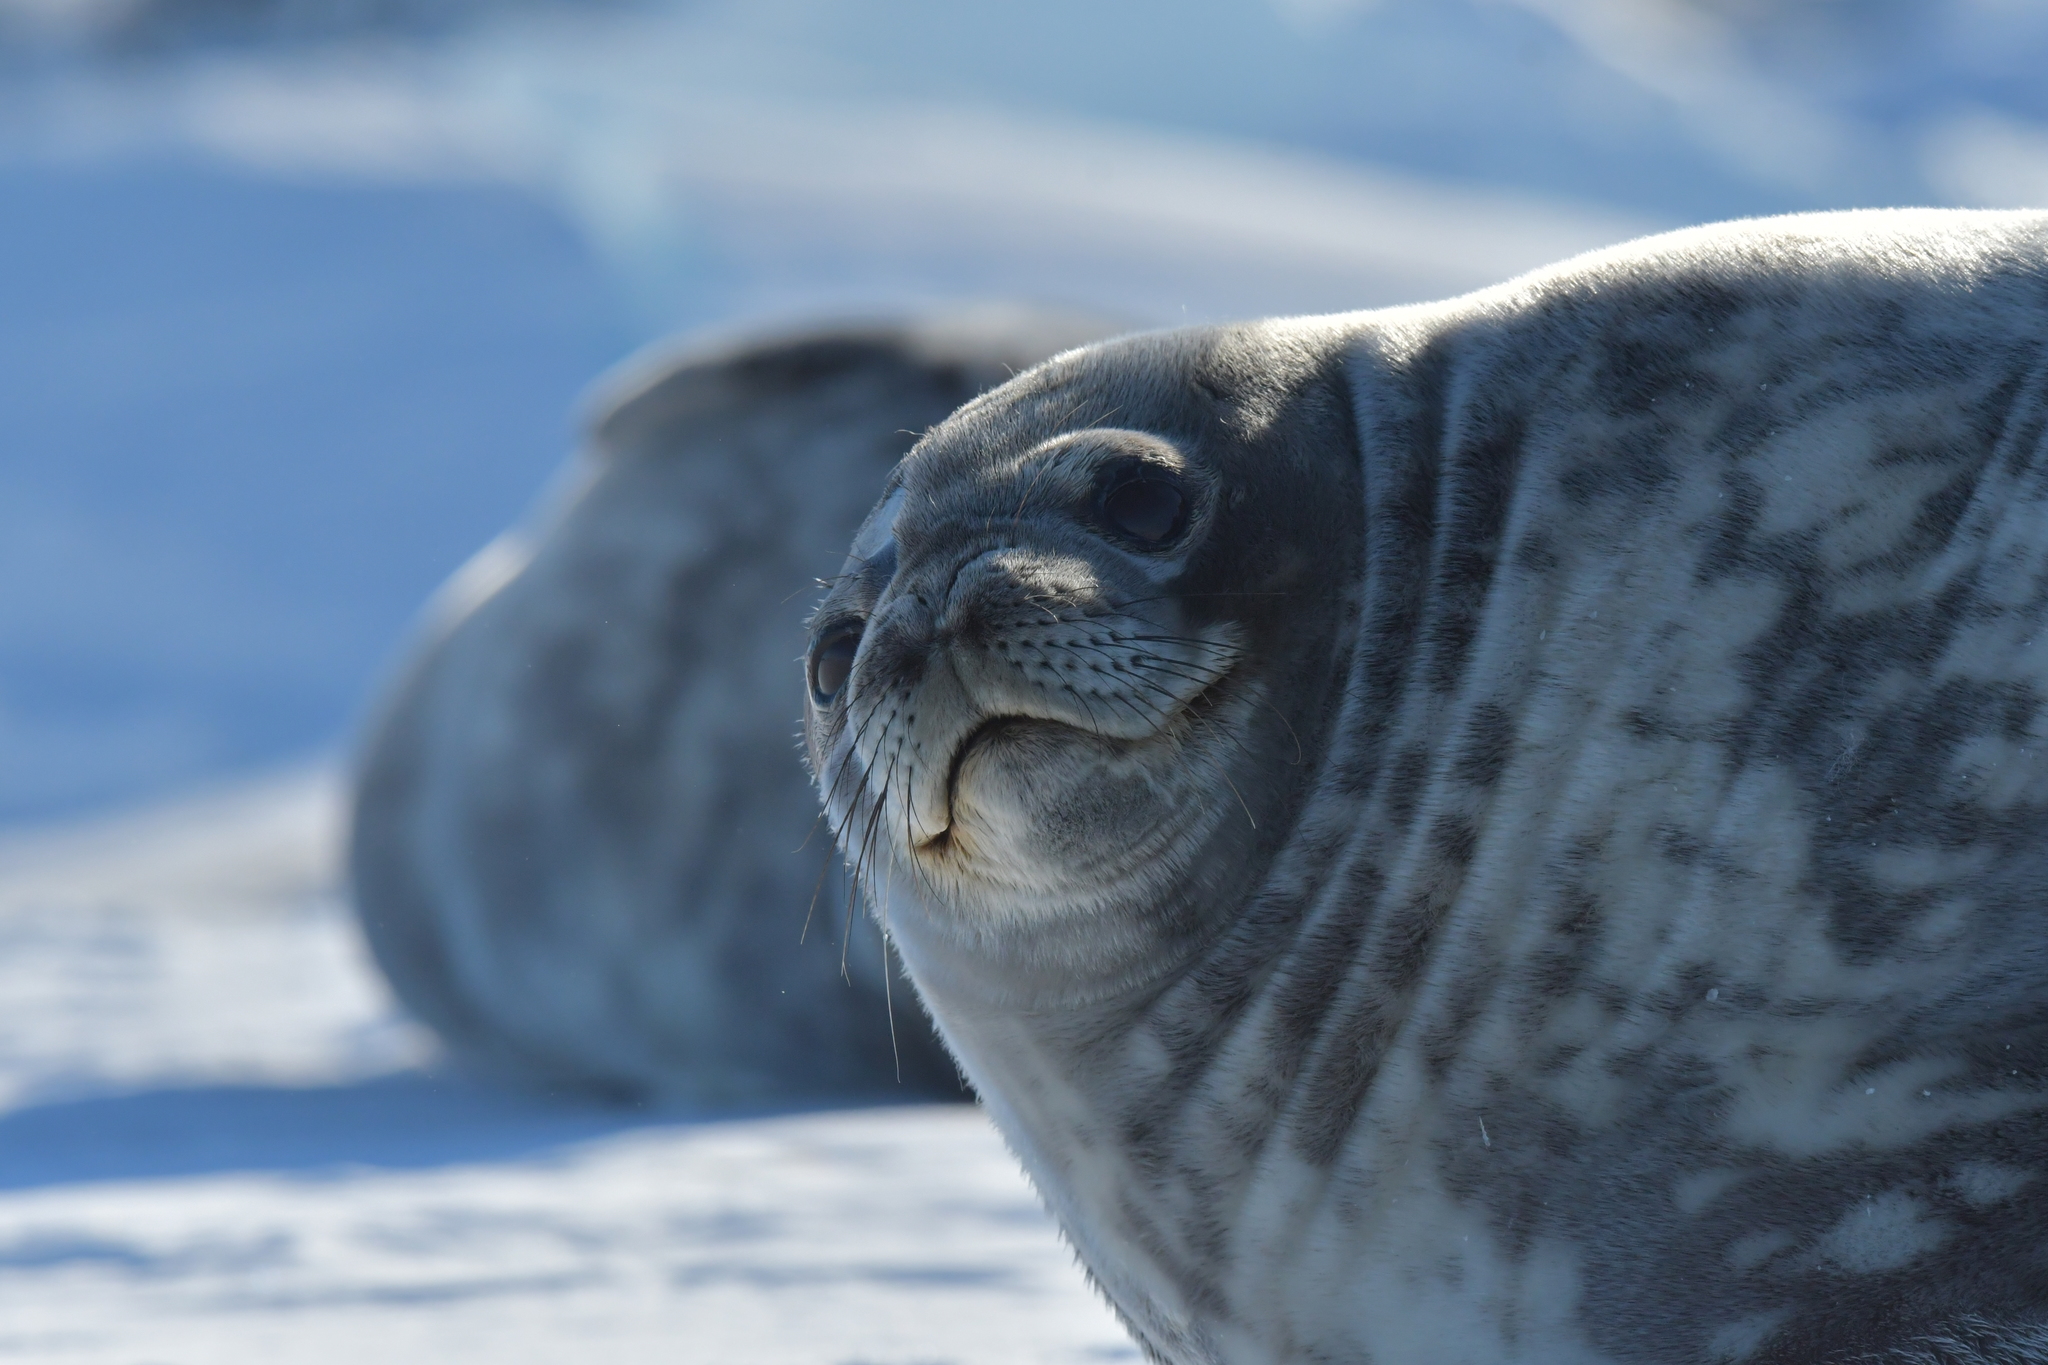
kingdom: Animalia
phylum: Chordata
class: Mammalia
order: Carnivora
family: Phocidae
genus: Leptonychotes
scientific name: Leptonychotes weddellii
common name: Weddell seal
